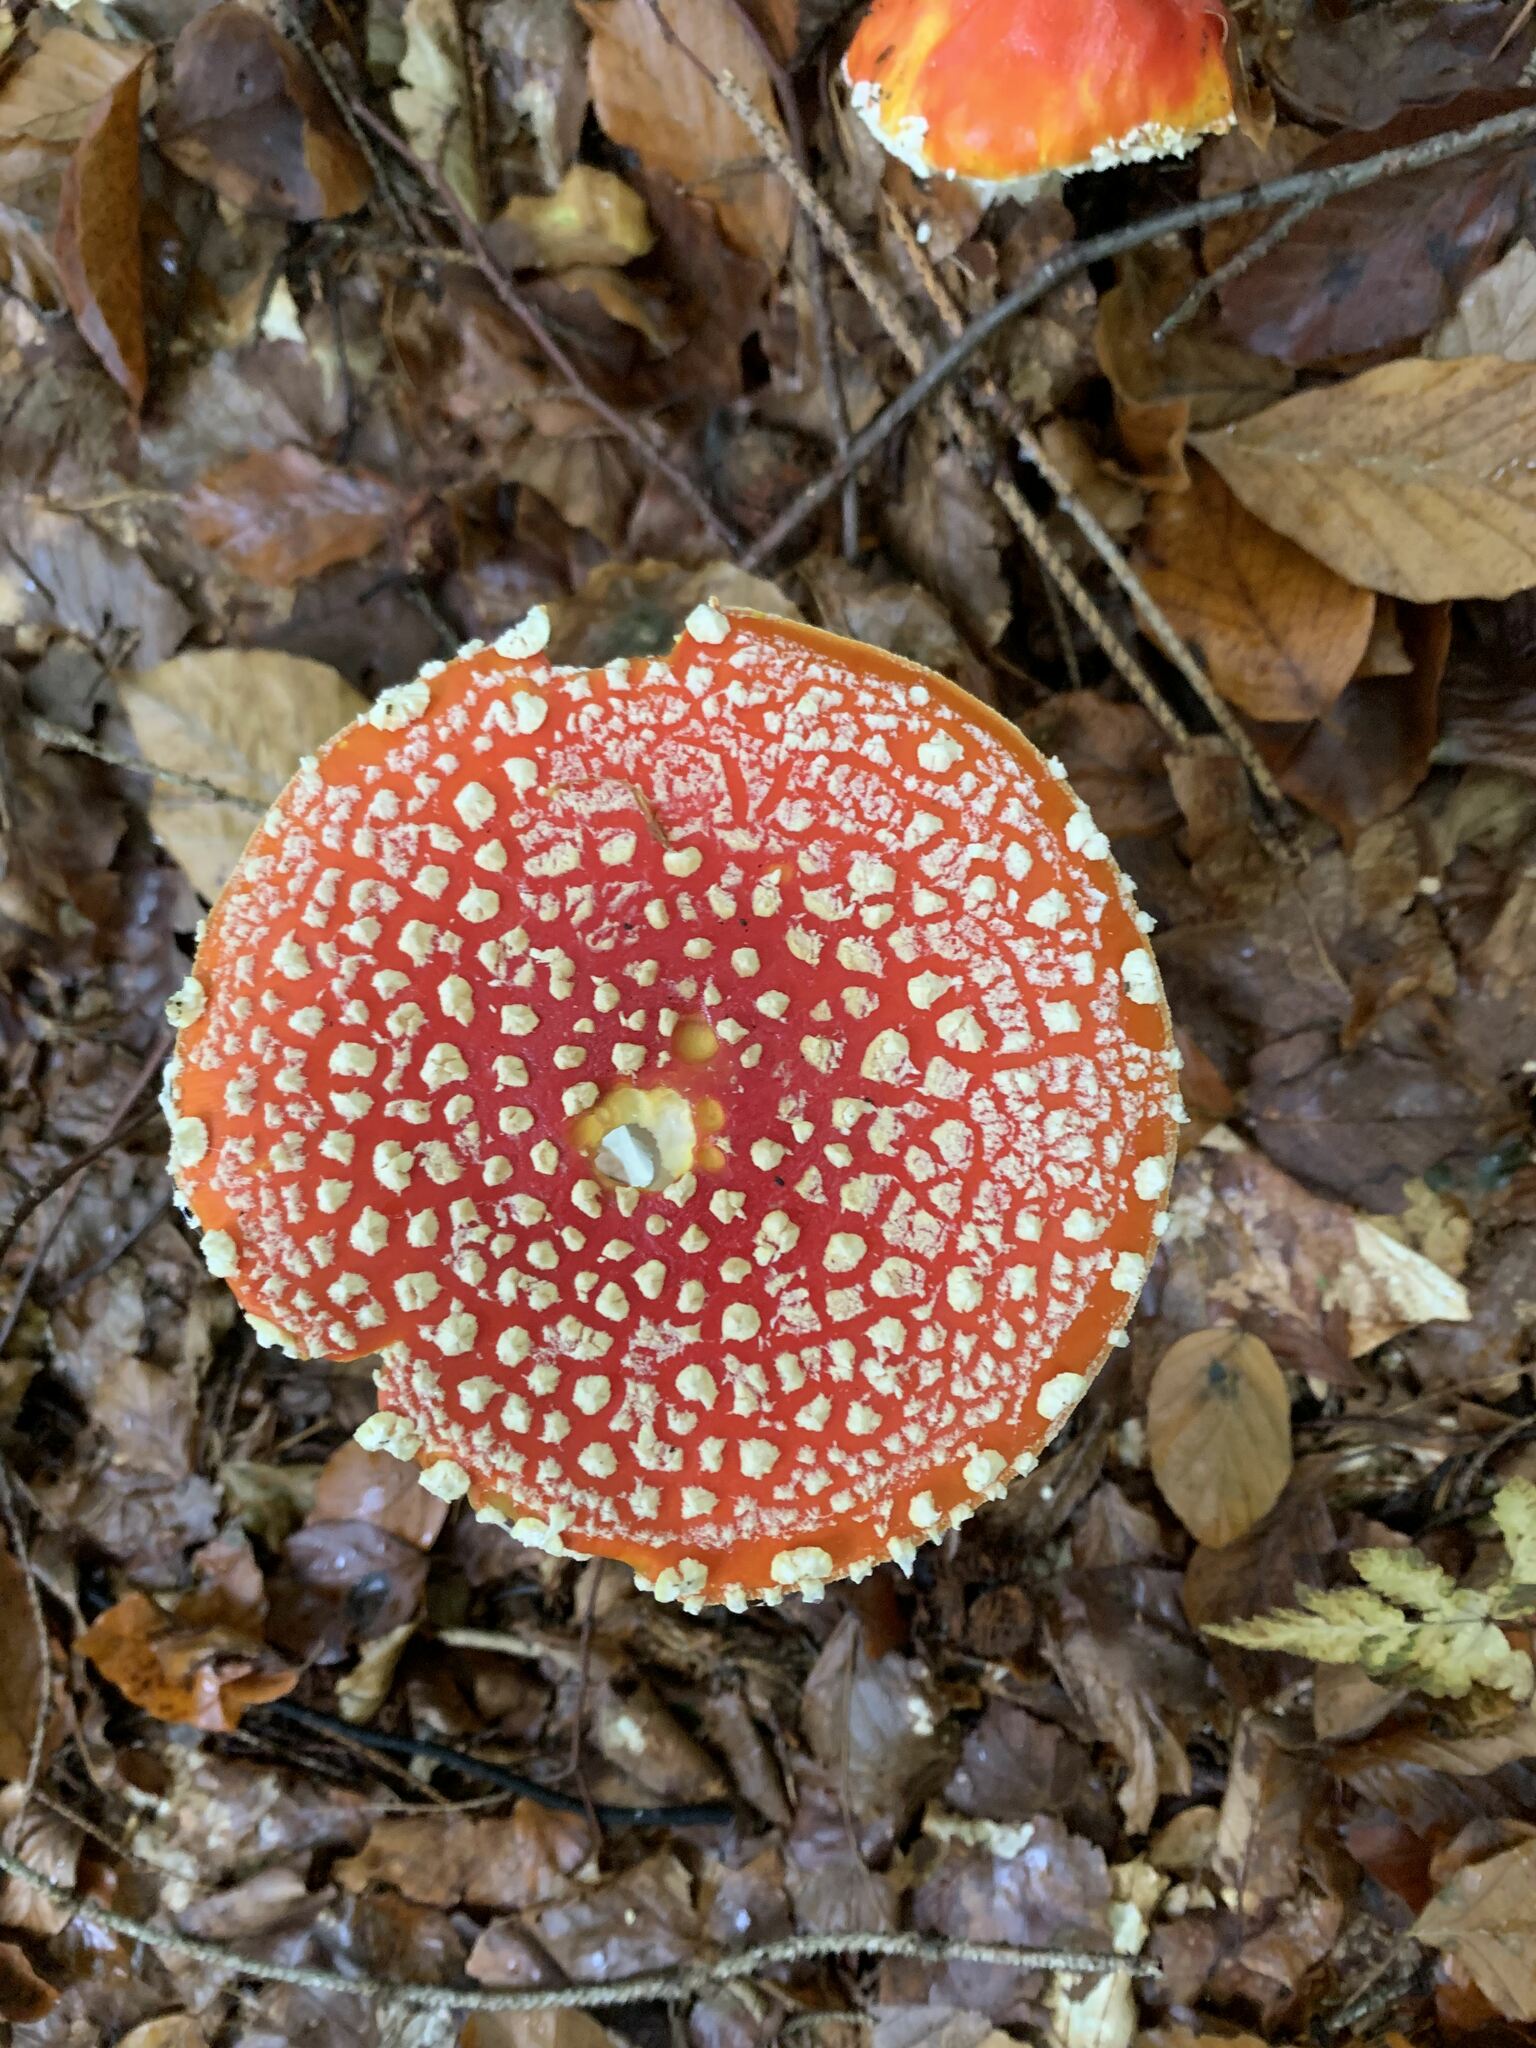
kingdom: Fungi
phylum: Basidiomycota
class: Agaricomycetes
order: Agaricales
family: Amanitaceae
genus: Amanita
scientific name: Amanita muscaria
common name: Fly agaric
